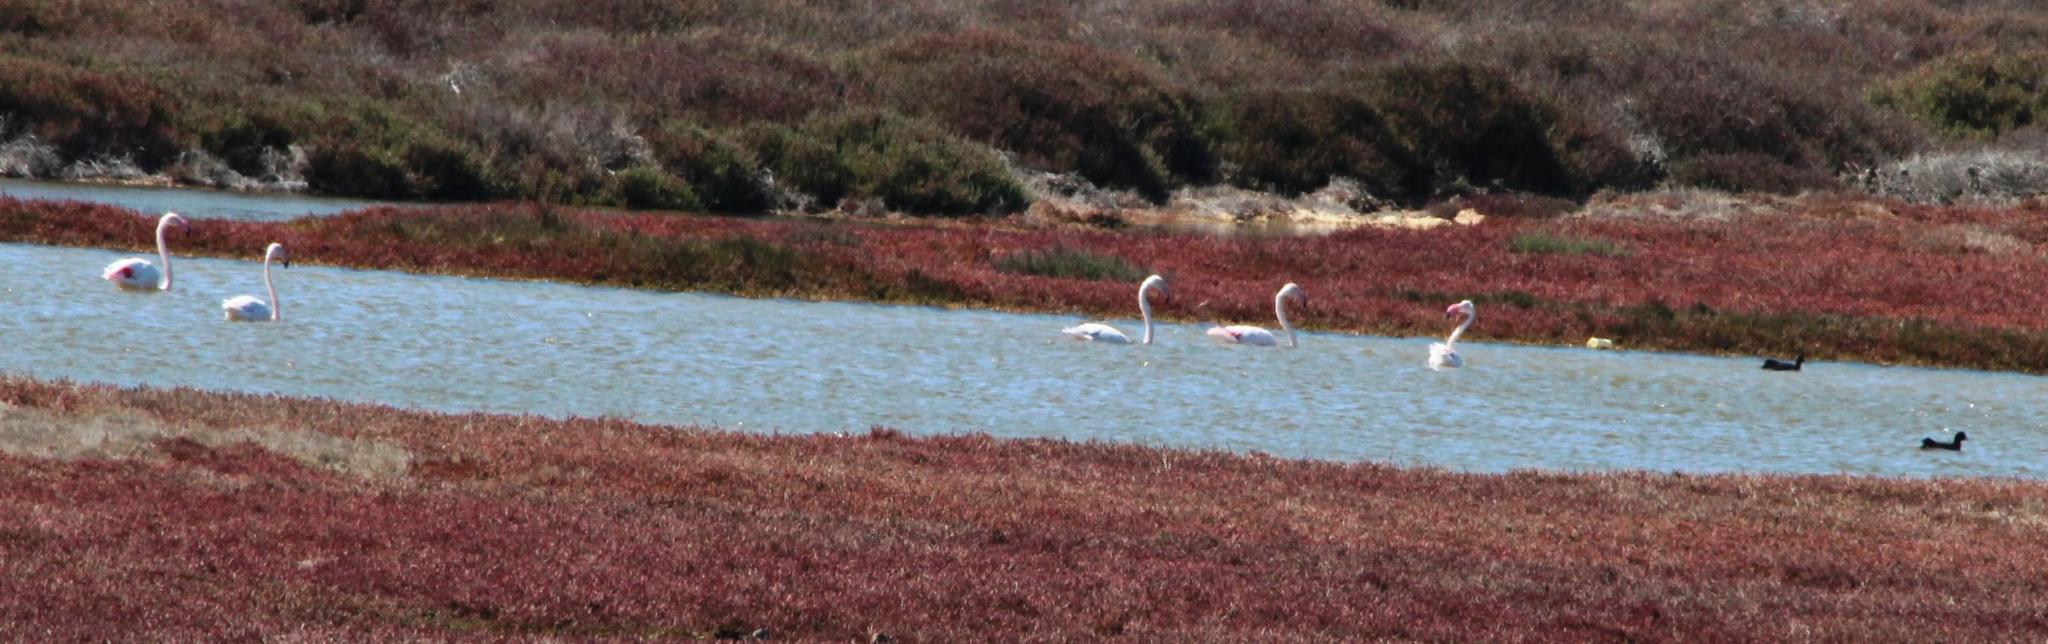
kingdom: Animalia
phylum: Chordata
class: Aves
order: Phoenicopteriformes
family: Phoenicopteridae
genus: Phoenicopterus
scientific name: Phoenicopterus roseus
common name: Greater flamingo
